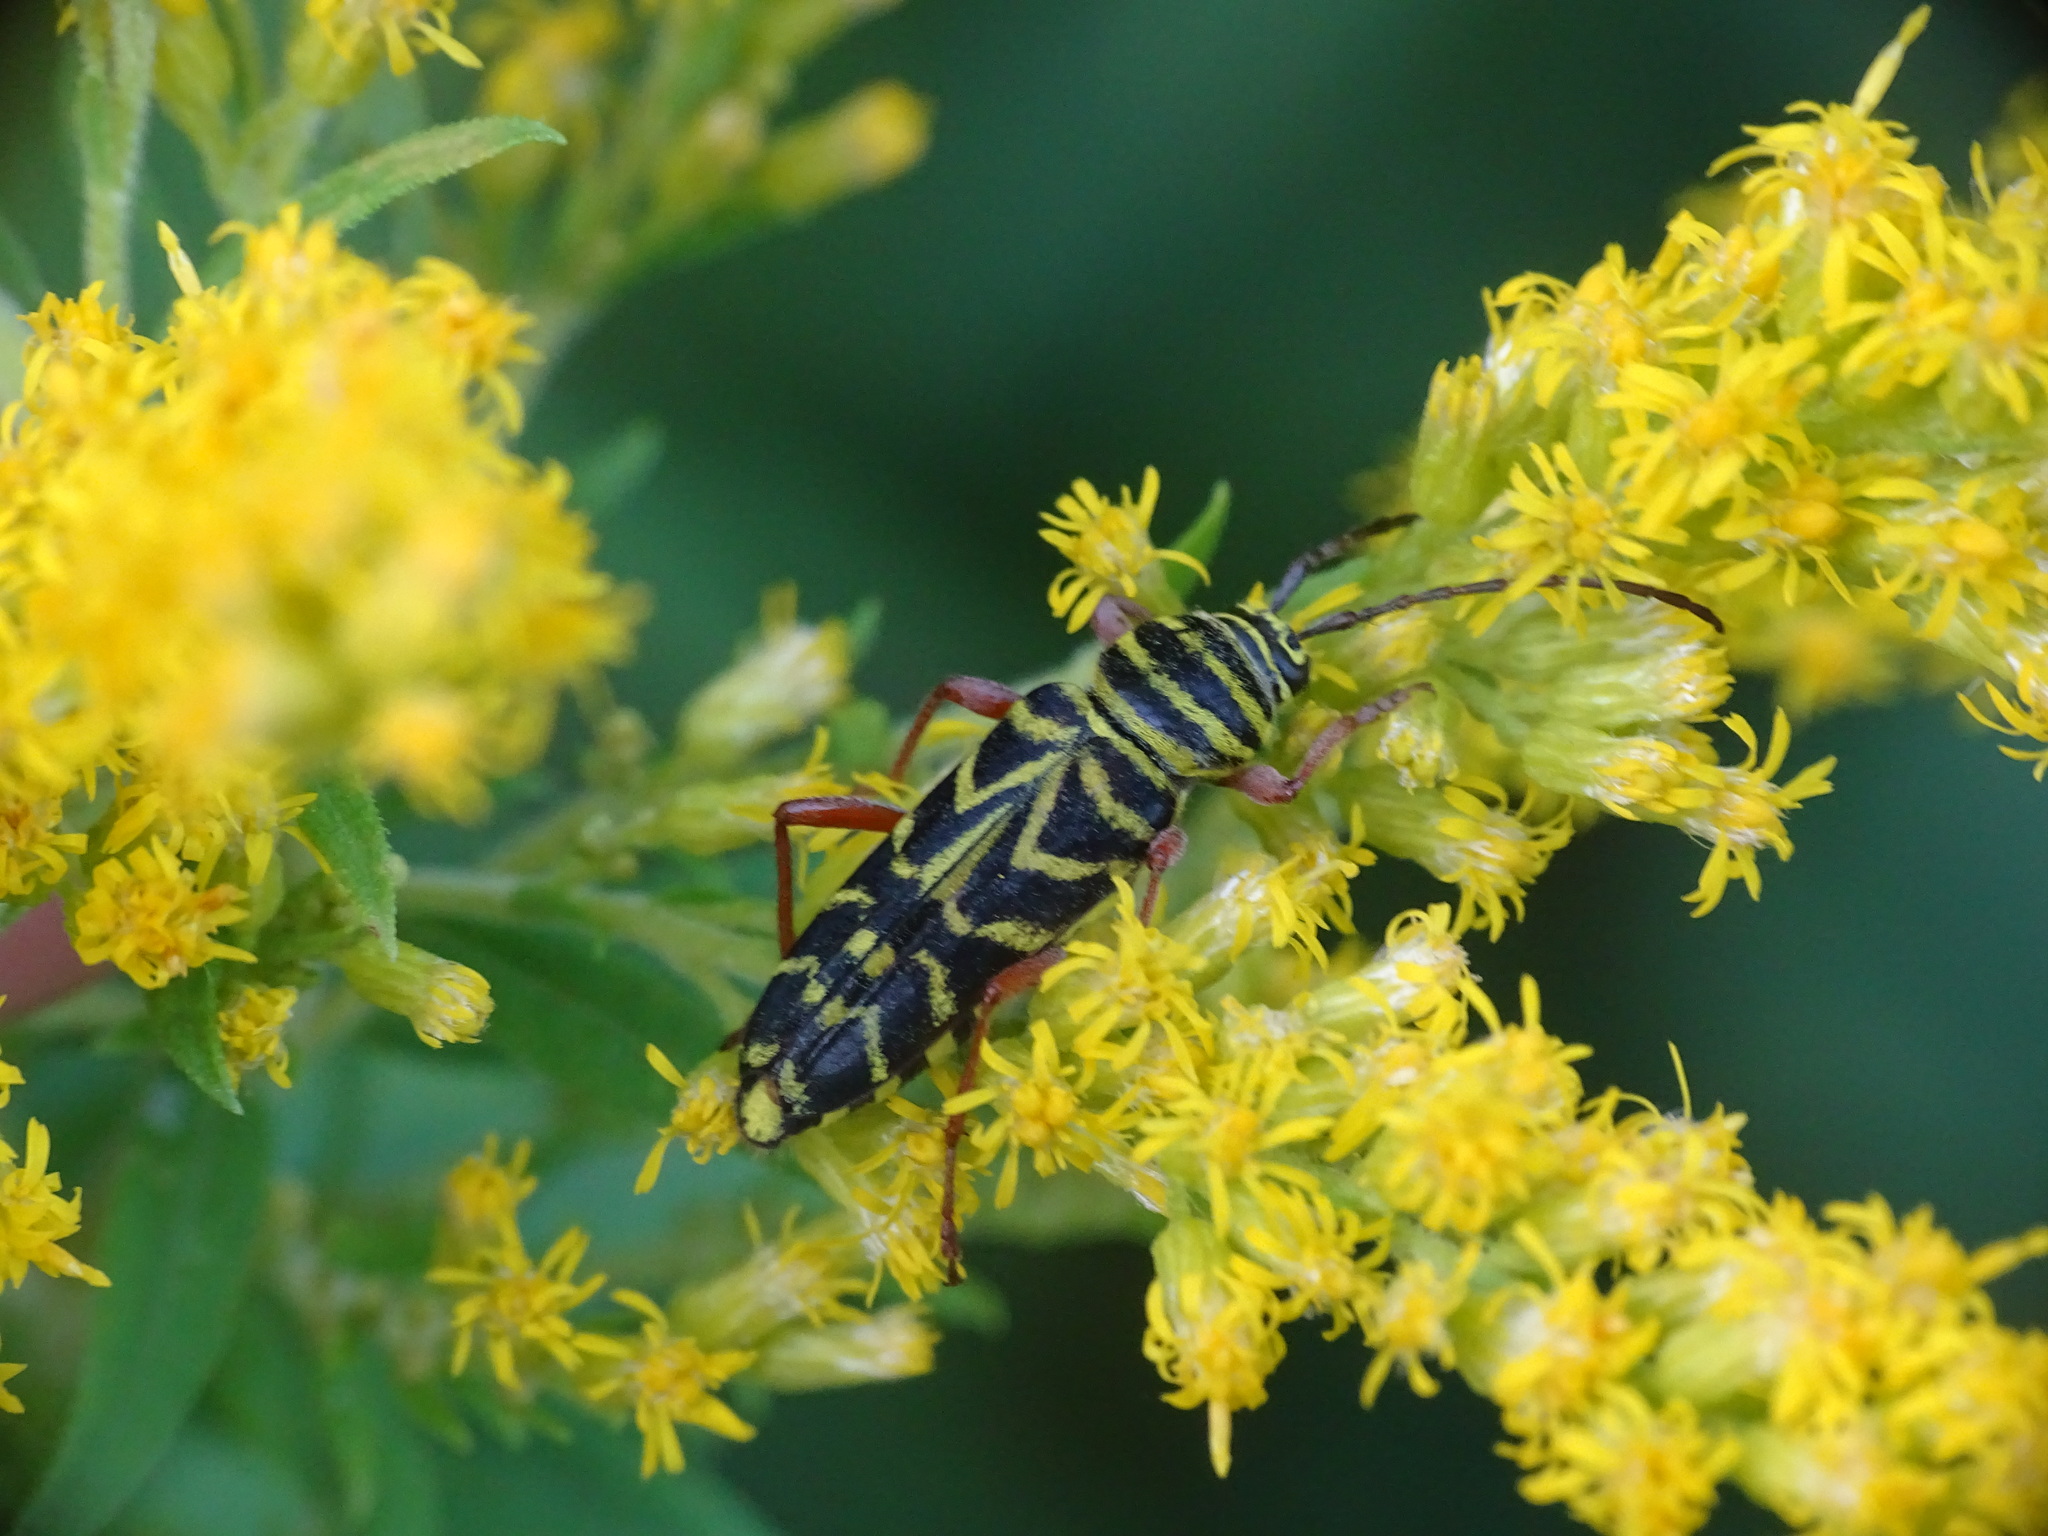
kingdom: Animalia
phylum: Arthropoda
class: Insecta
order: Coleoptera
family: Cerambycidae
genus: Megacyllene
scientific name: Megacyllene robiniae
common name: Locust borer
